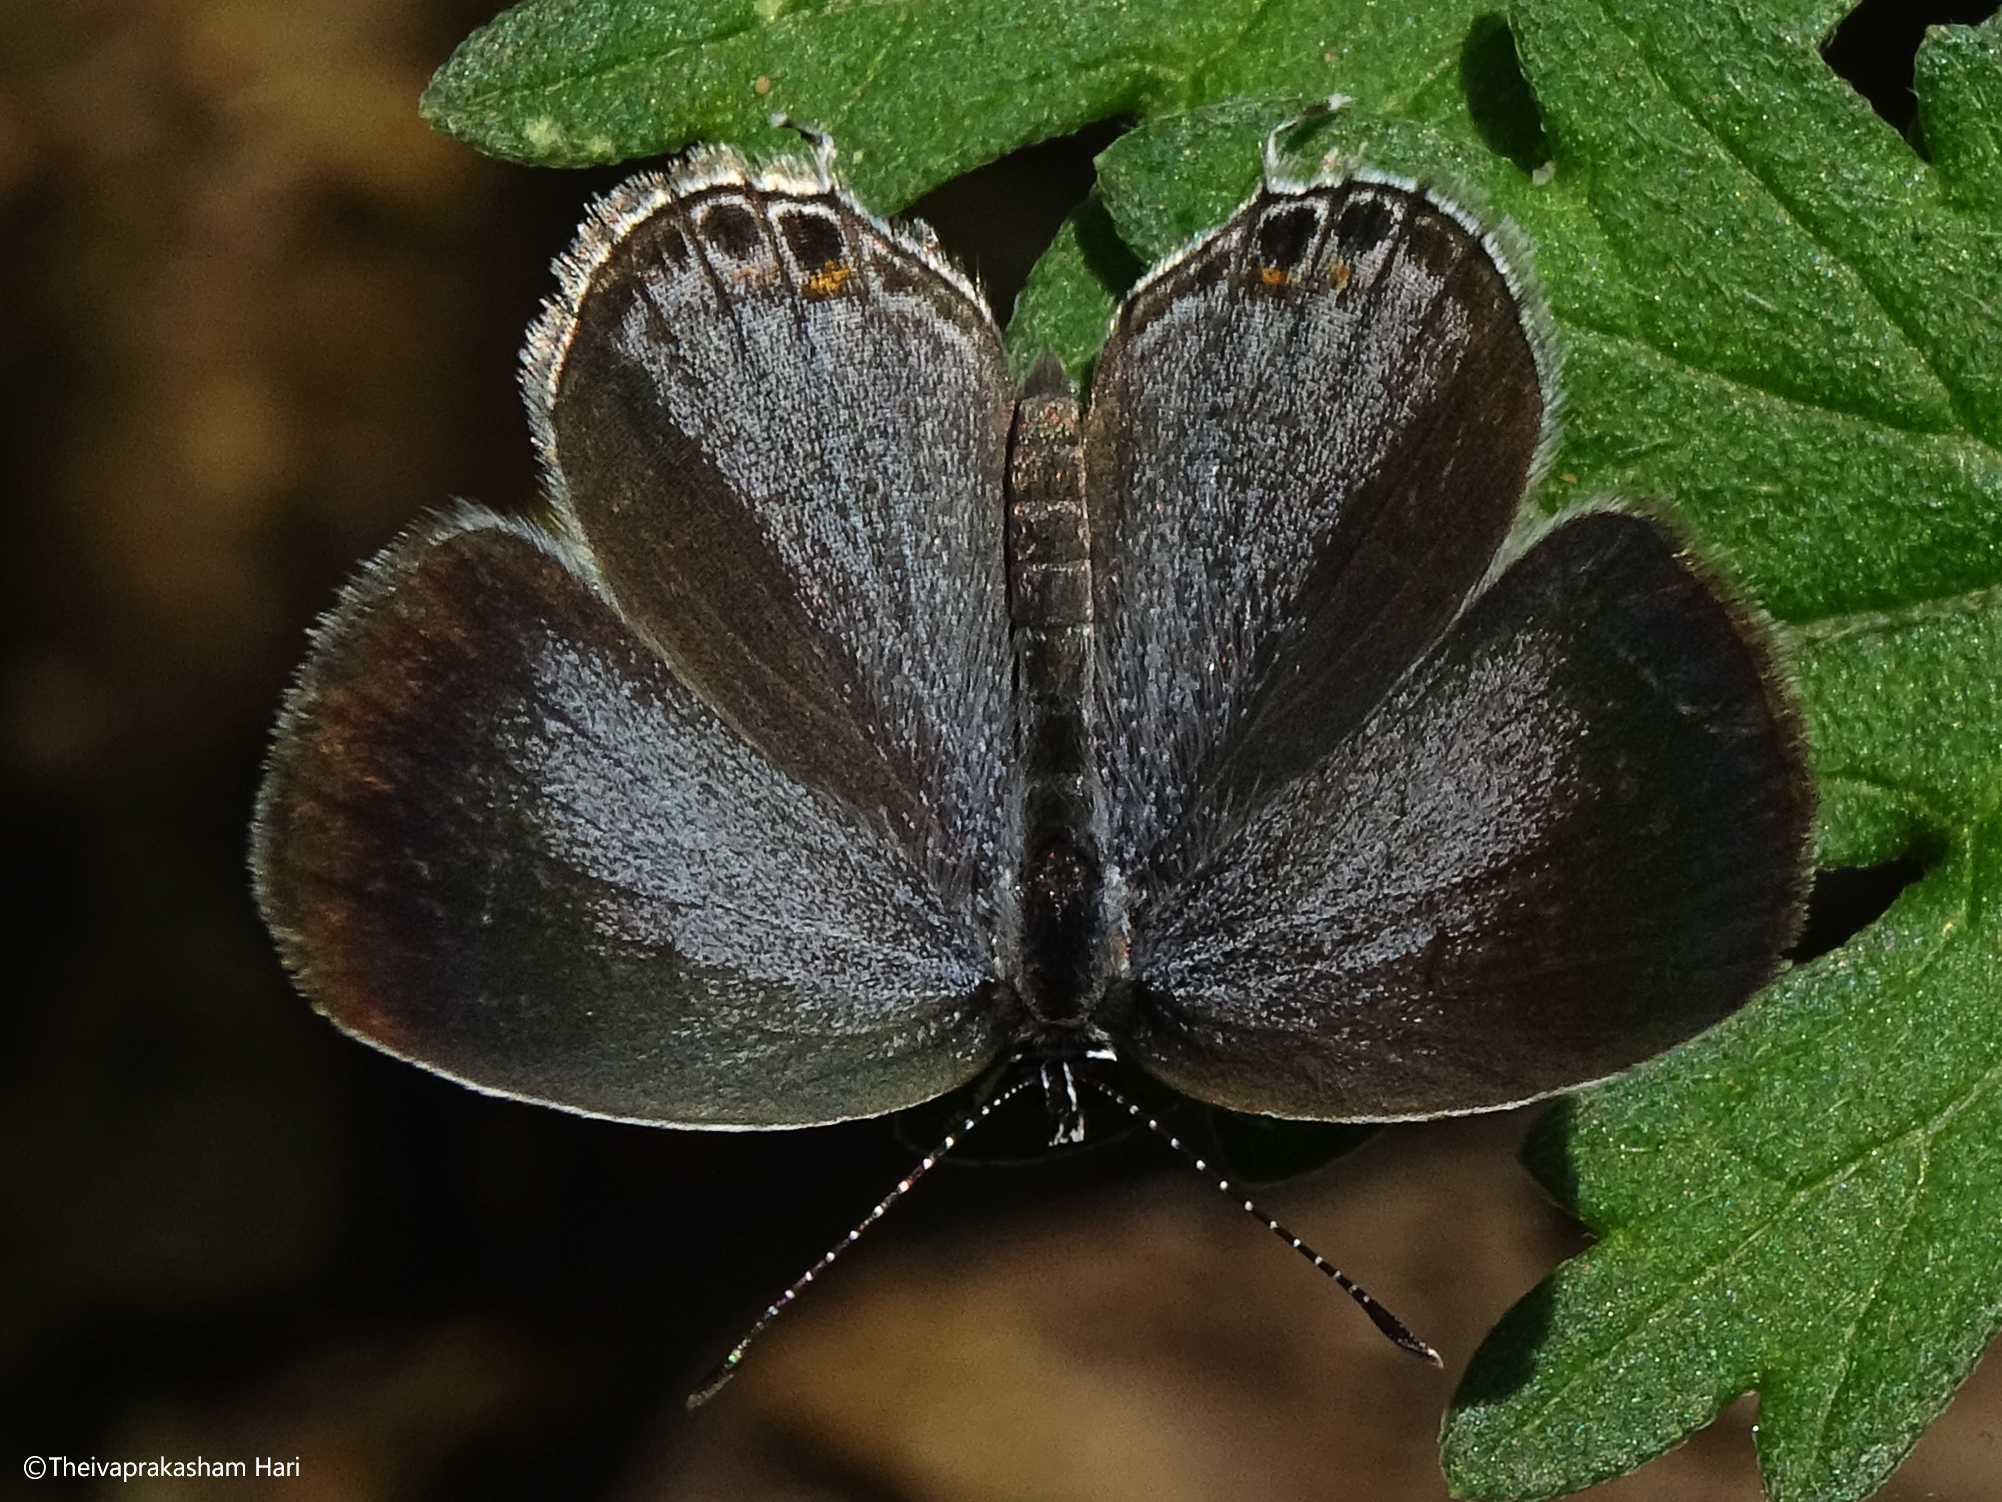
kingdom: Animalia
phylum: Arthropoda
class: Insecta
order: Lepidoptera
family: Lycaenidae
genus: Pseudozizeeria
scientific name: Pseudozizeeria maha
